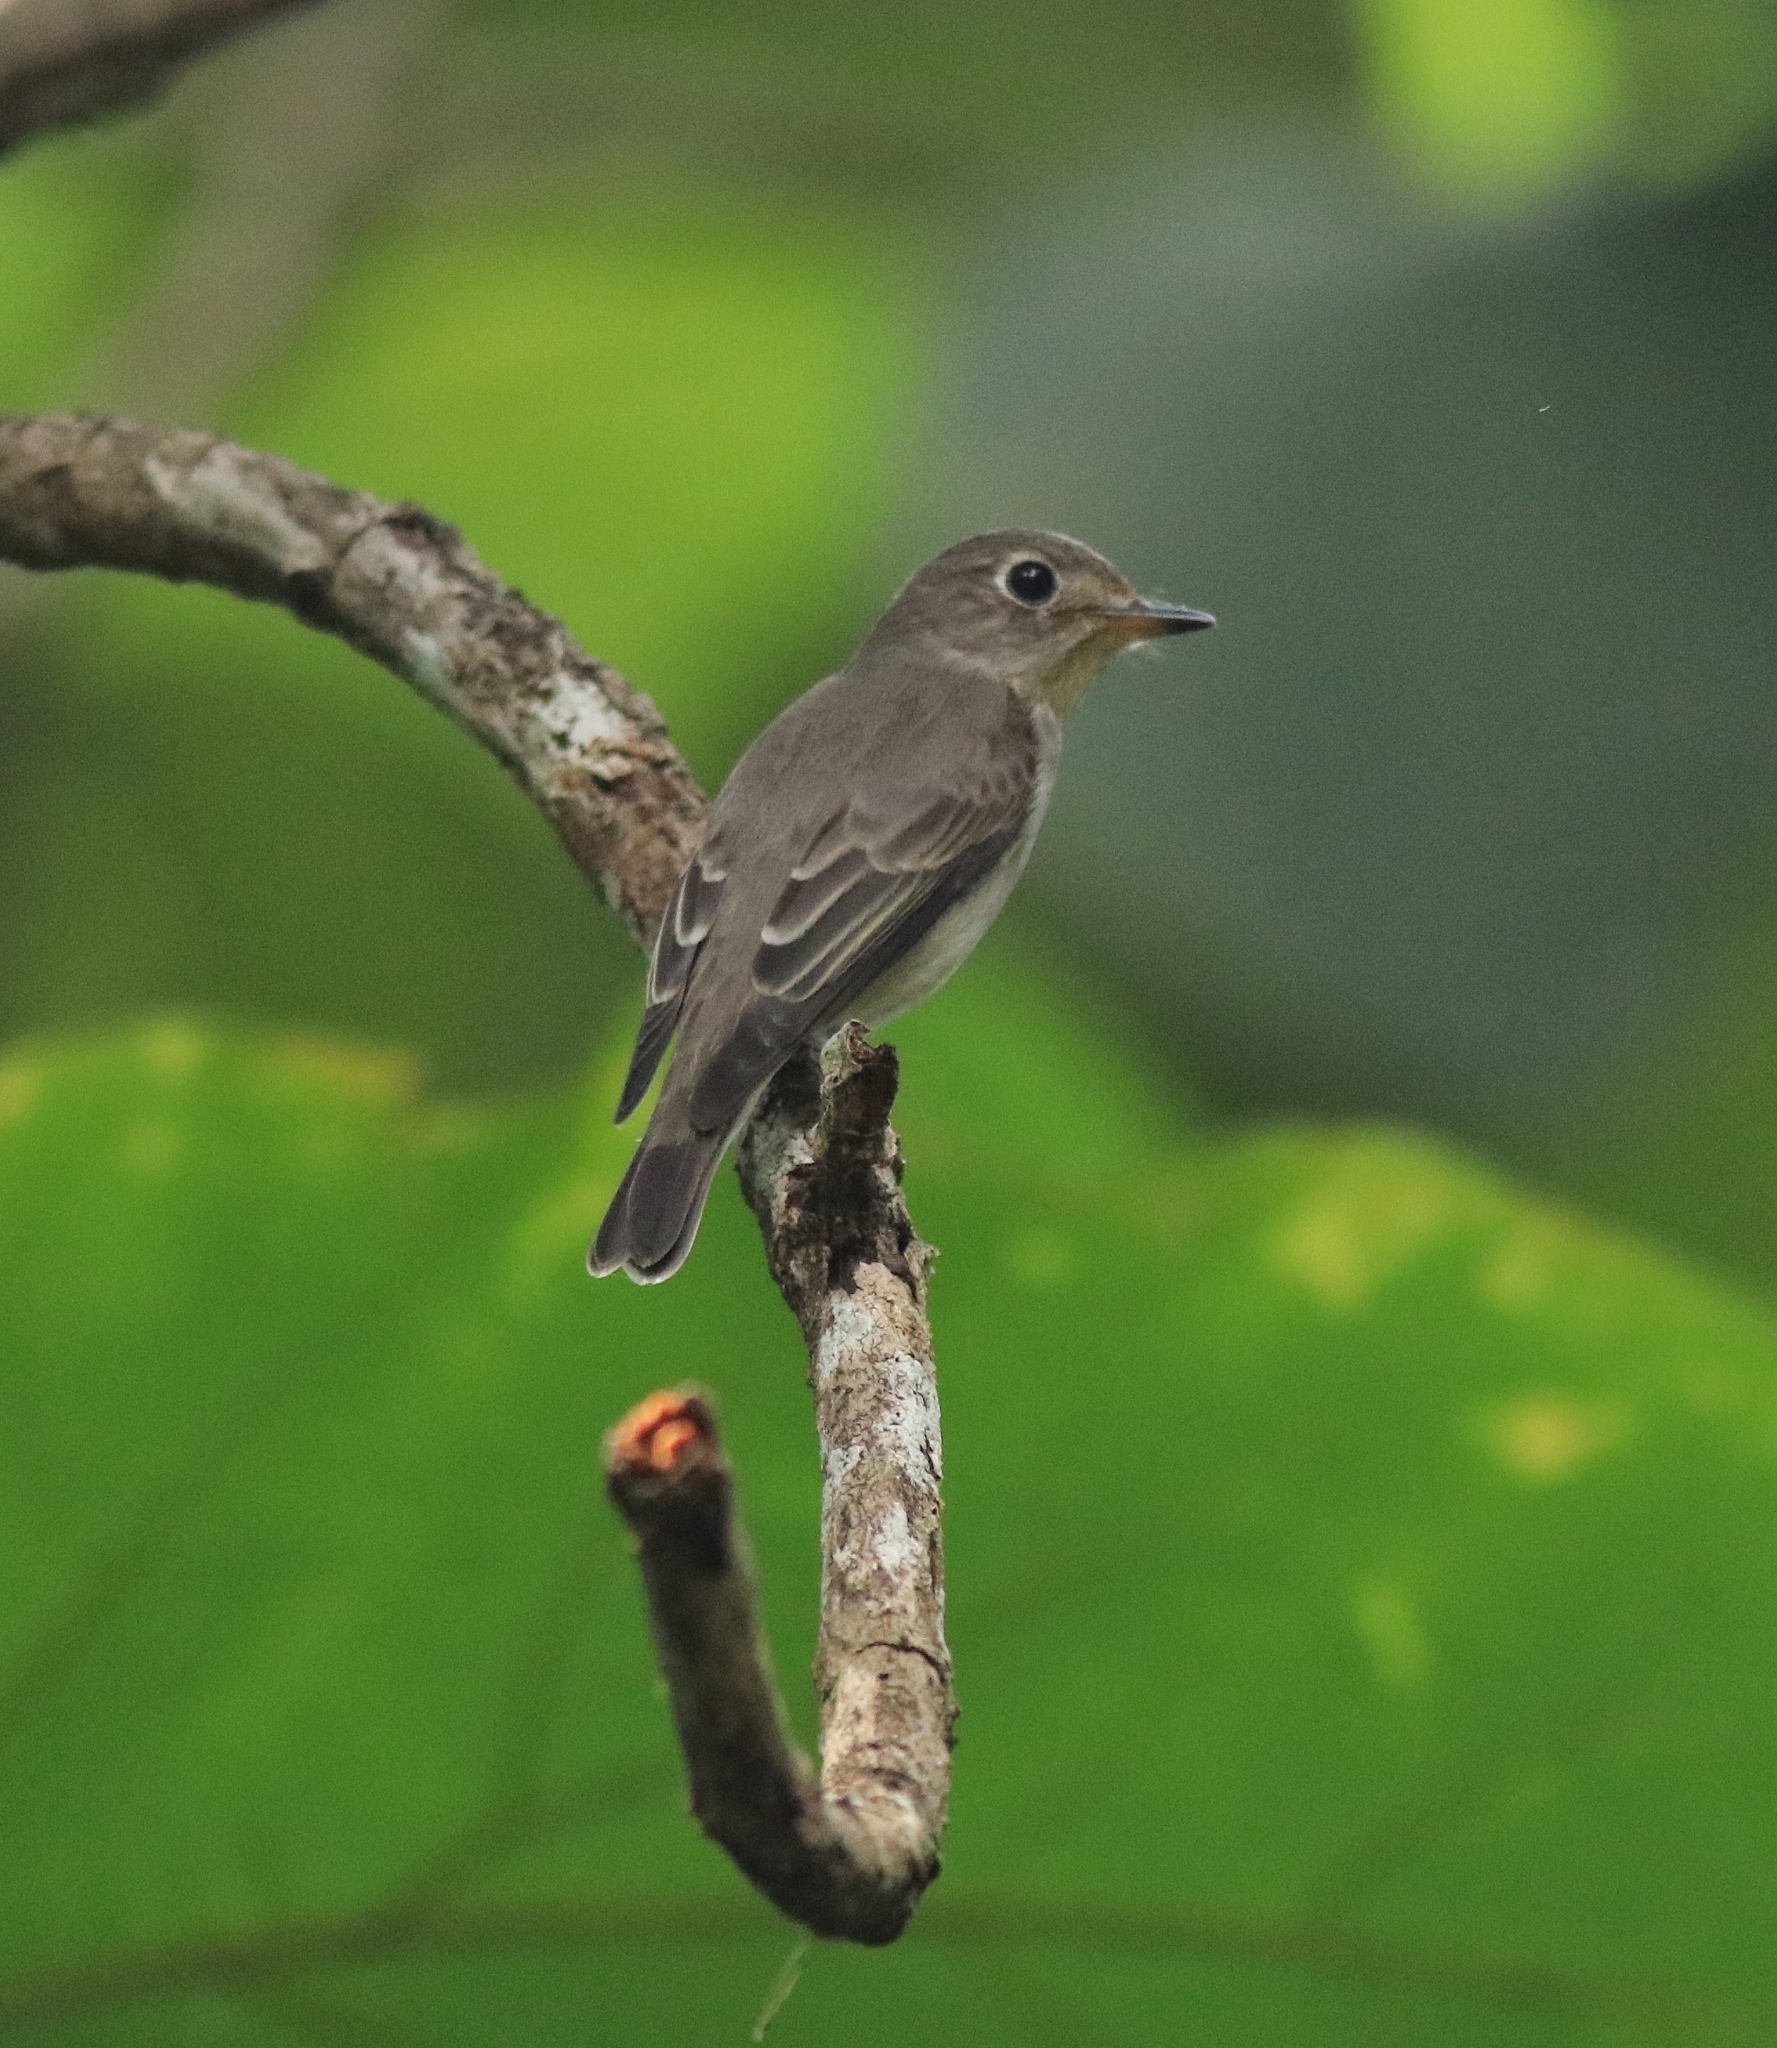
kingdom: Animalia
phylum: Chordata
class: Aves
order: Passeriformes
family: Muscicapidae
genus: Muscicapa
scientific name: Muscicapa latirostris
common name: Asian brown flycatcher
